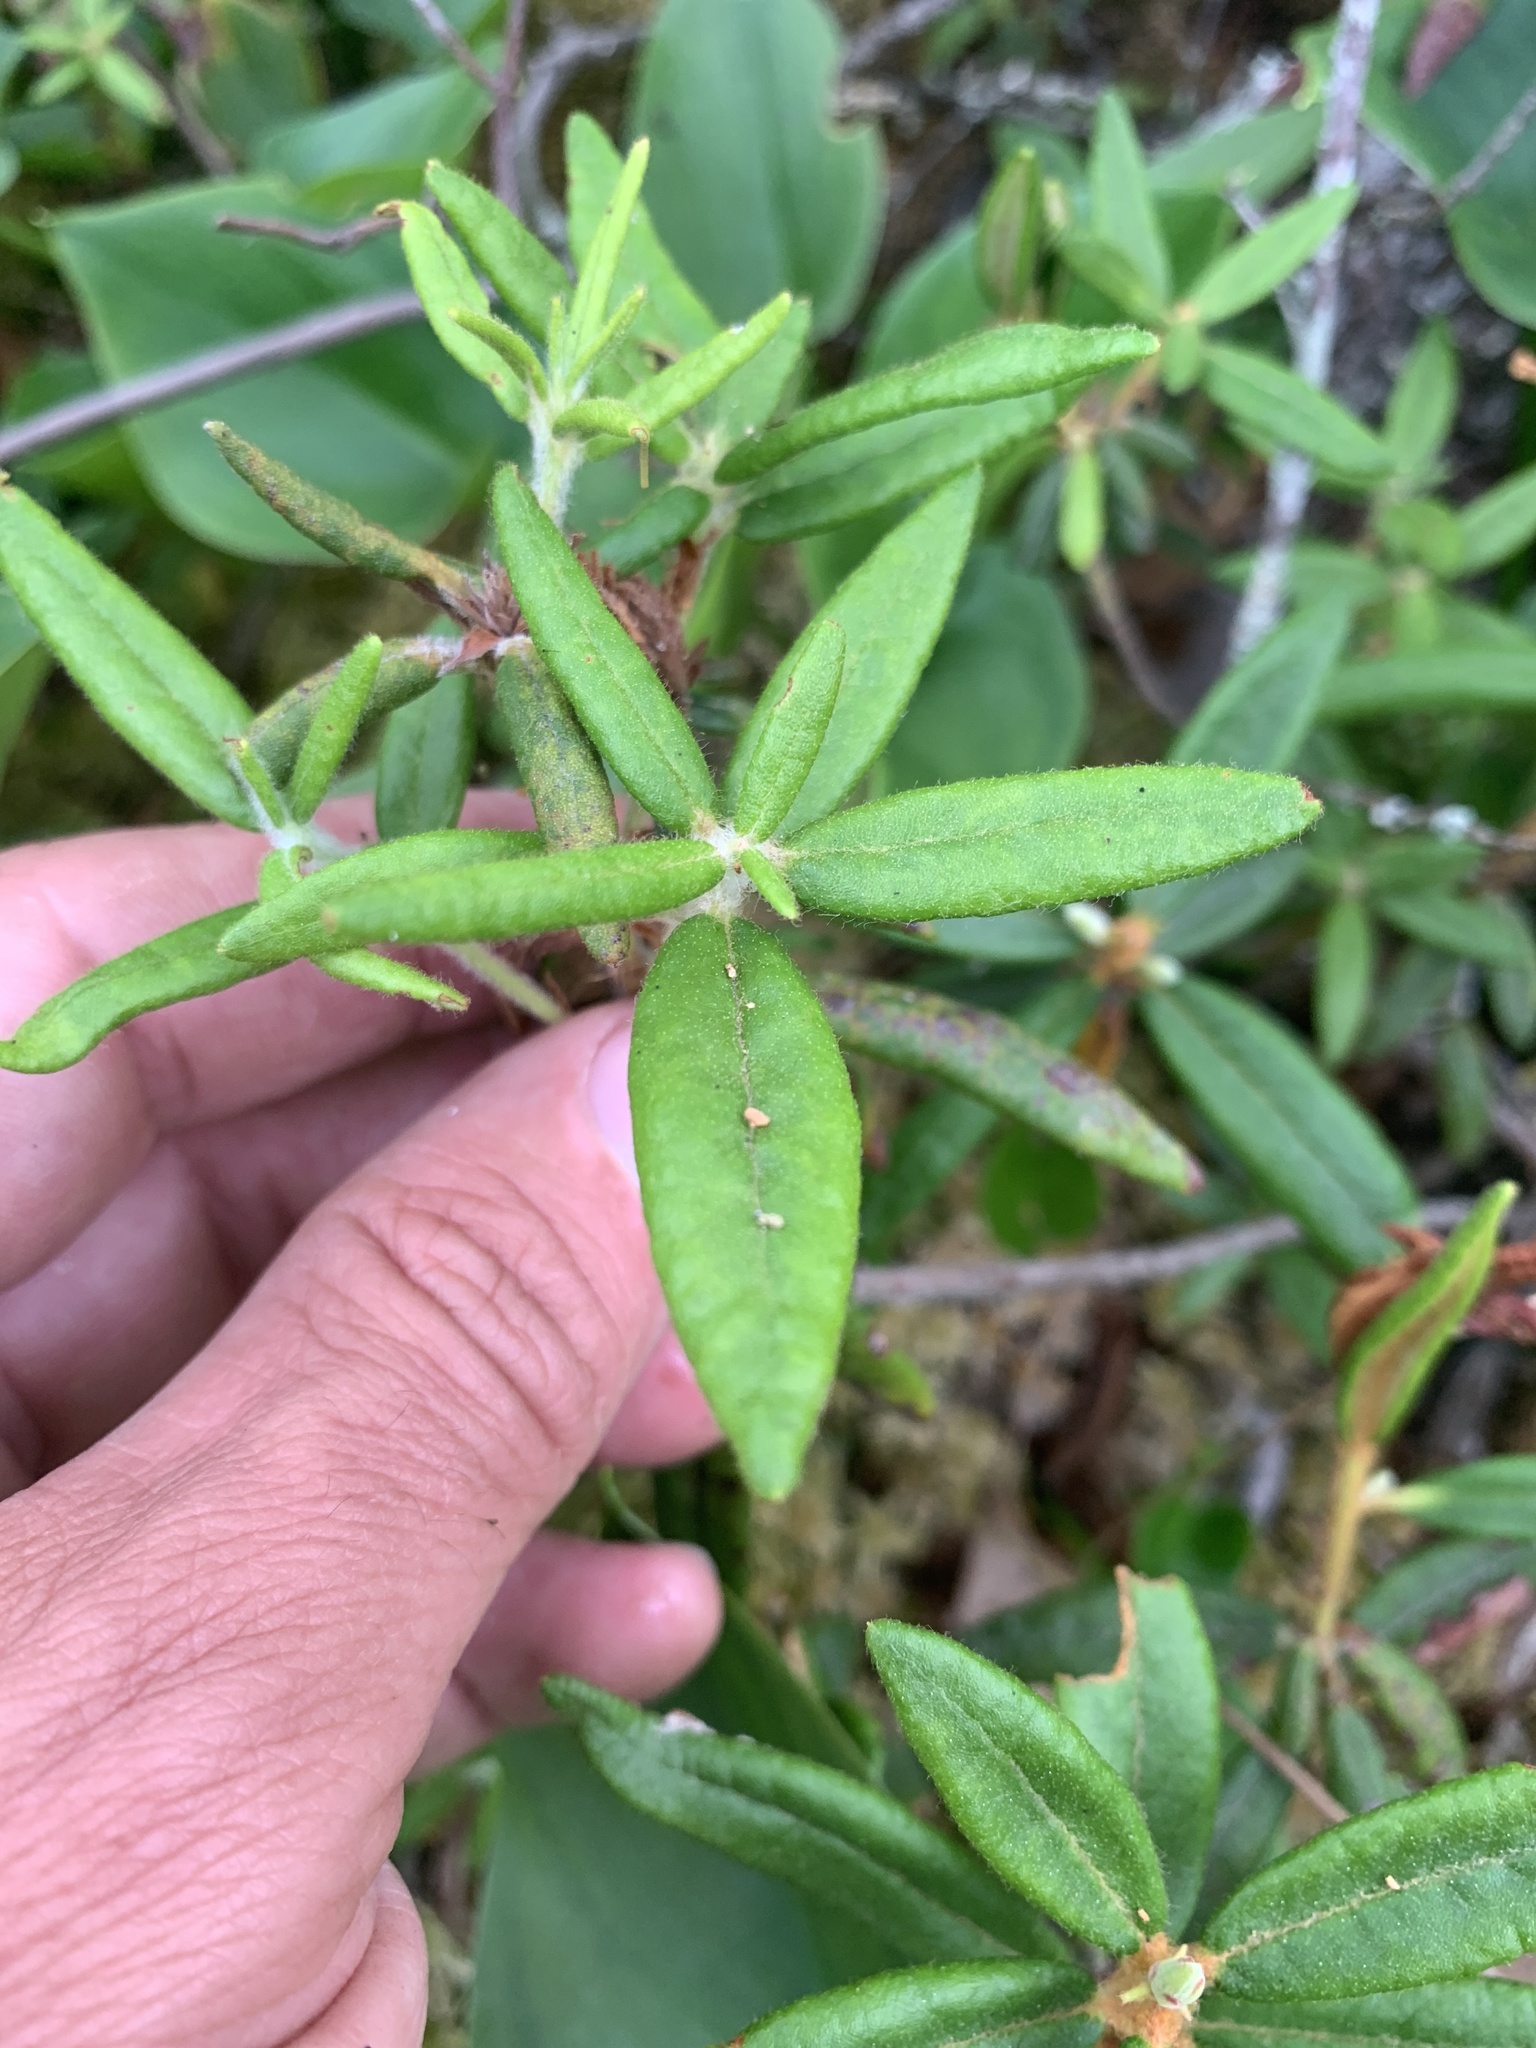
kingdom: Plantae
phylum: Tracheophyta
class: Magnoliopsida
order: Ericales
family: Ericaceae
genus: Rhododendron
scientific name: Rhododendron groenlandicum
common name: Bog labrador tea
